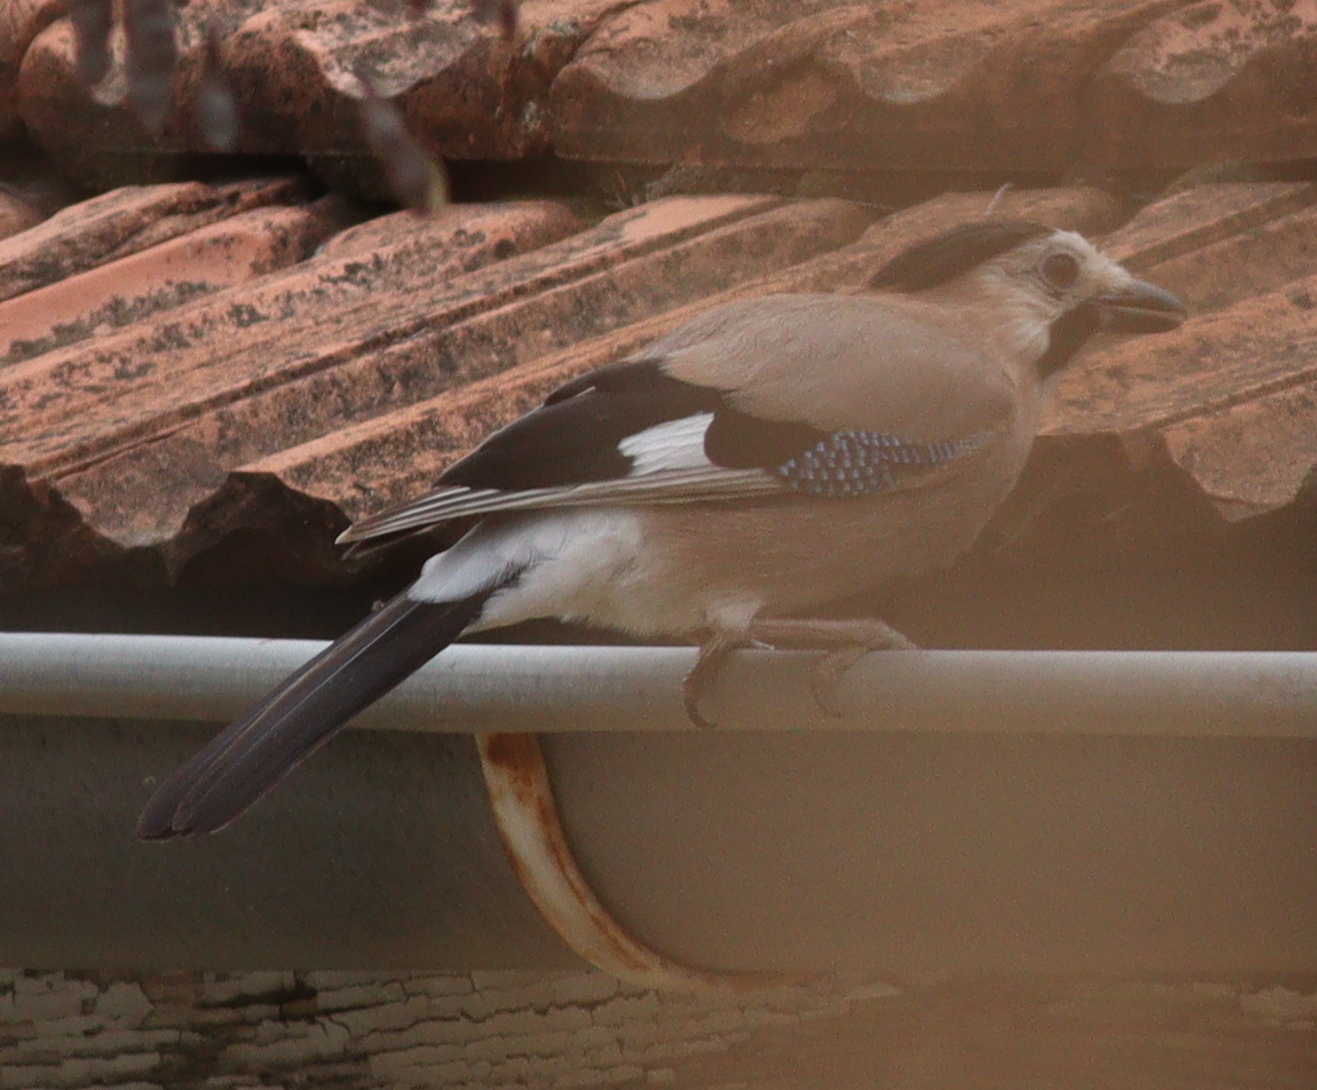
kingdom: Animalia
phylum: Chordata
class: Aves
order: Passeriformes
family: Corvidae
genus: Garrulus
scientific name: Garrulus glandarius
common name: Eurasian jay
